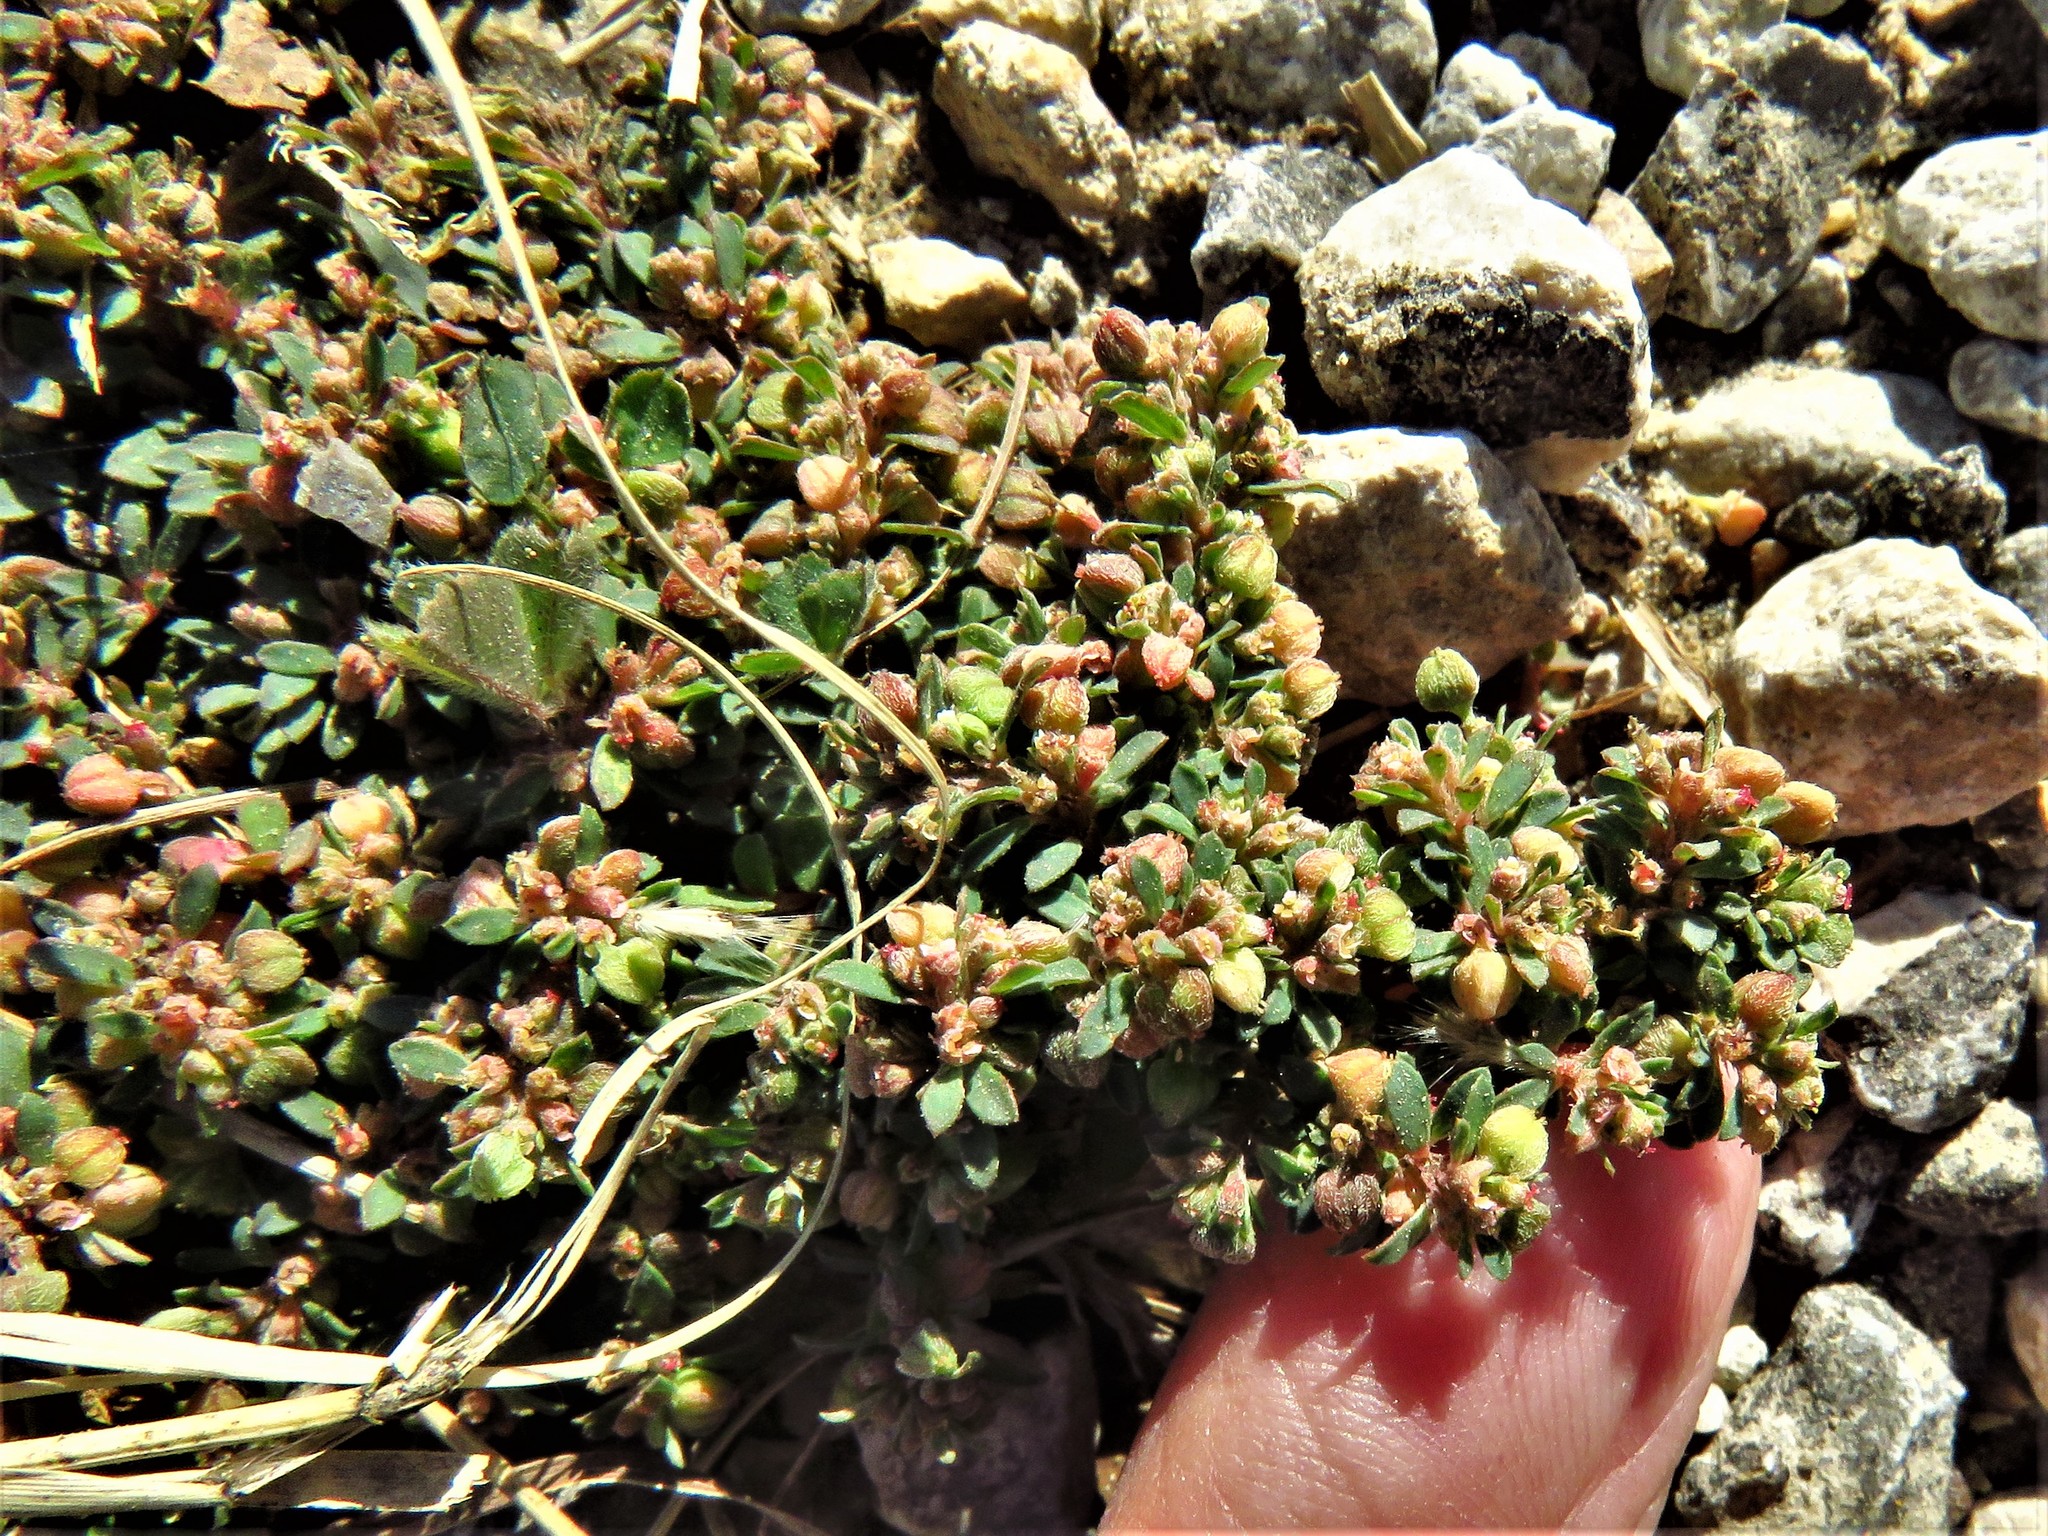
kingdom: Plantae
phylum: Tracheophyta
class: Magnoliopsida
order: Malpighiales
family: Euphorbiaceae
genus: Euphorbia
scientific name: Euphorbia maculata
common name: Spotted spurge
